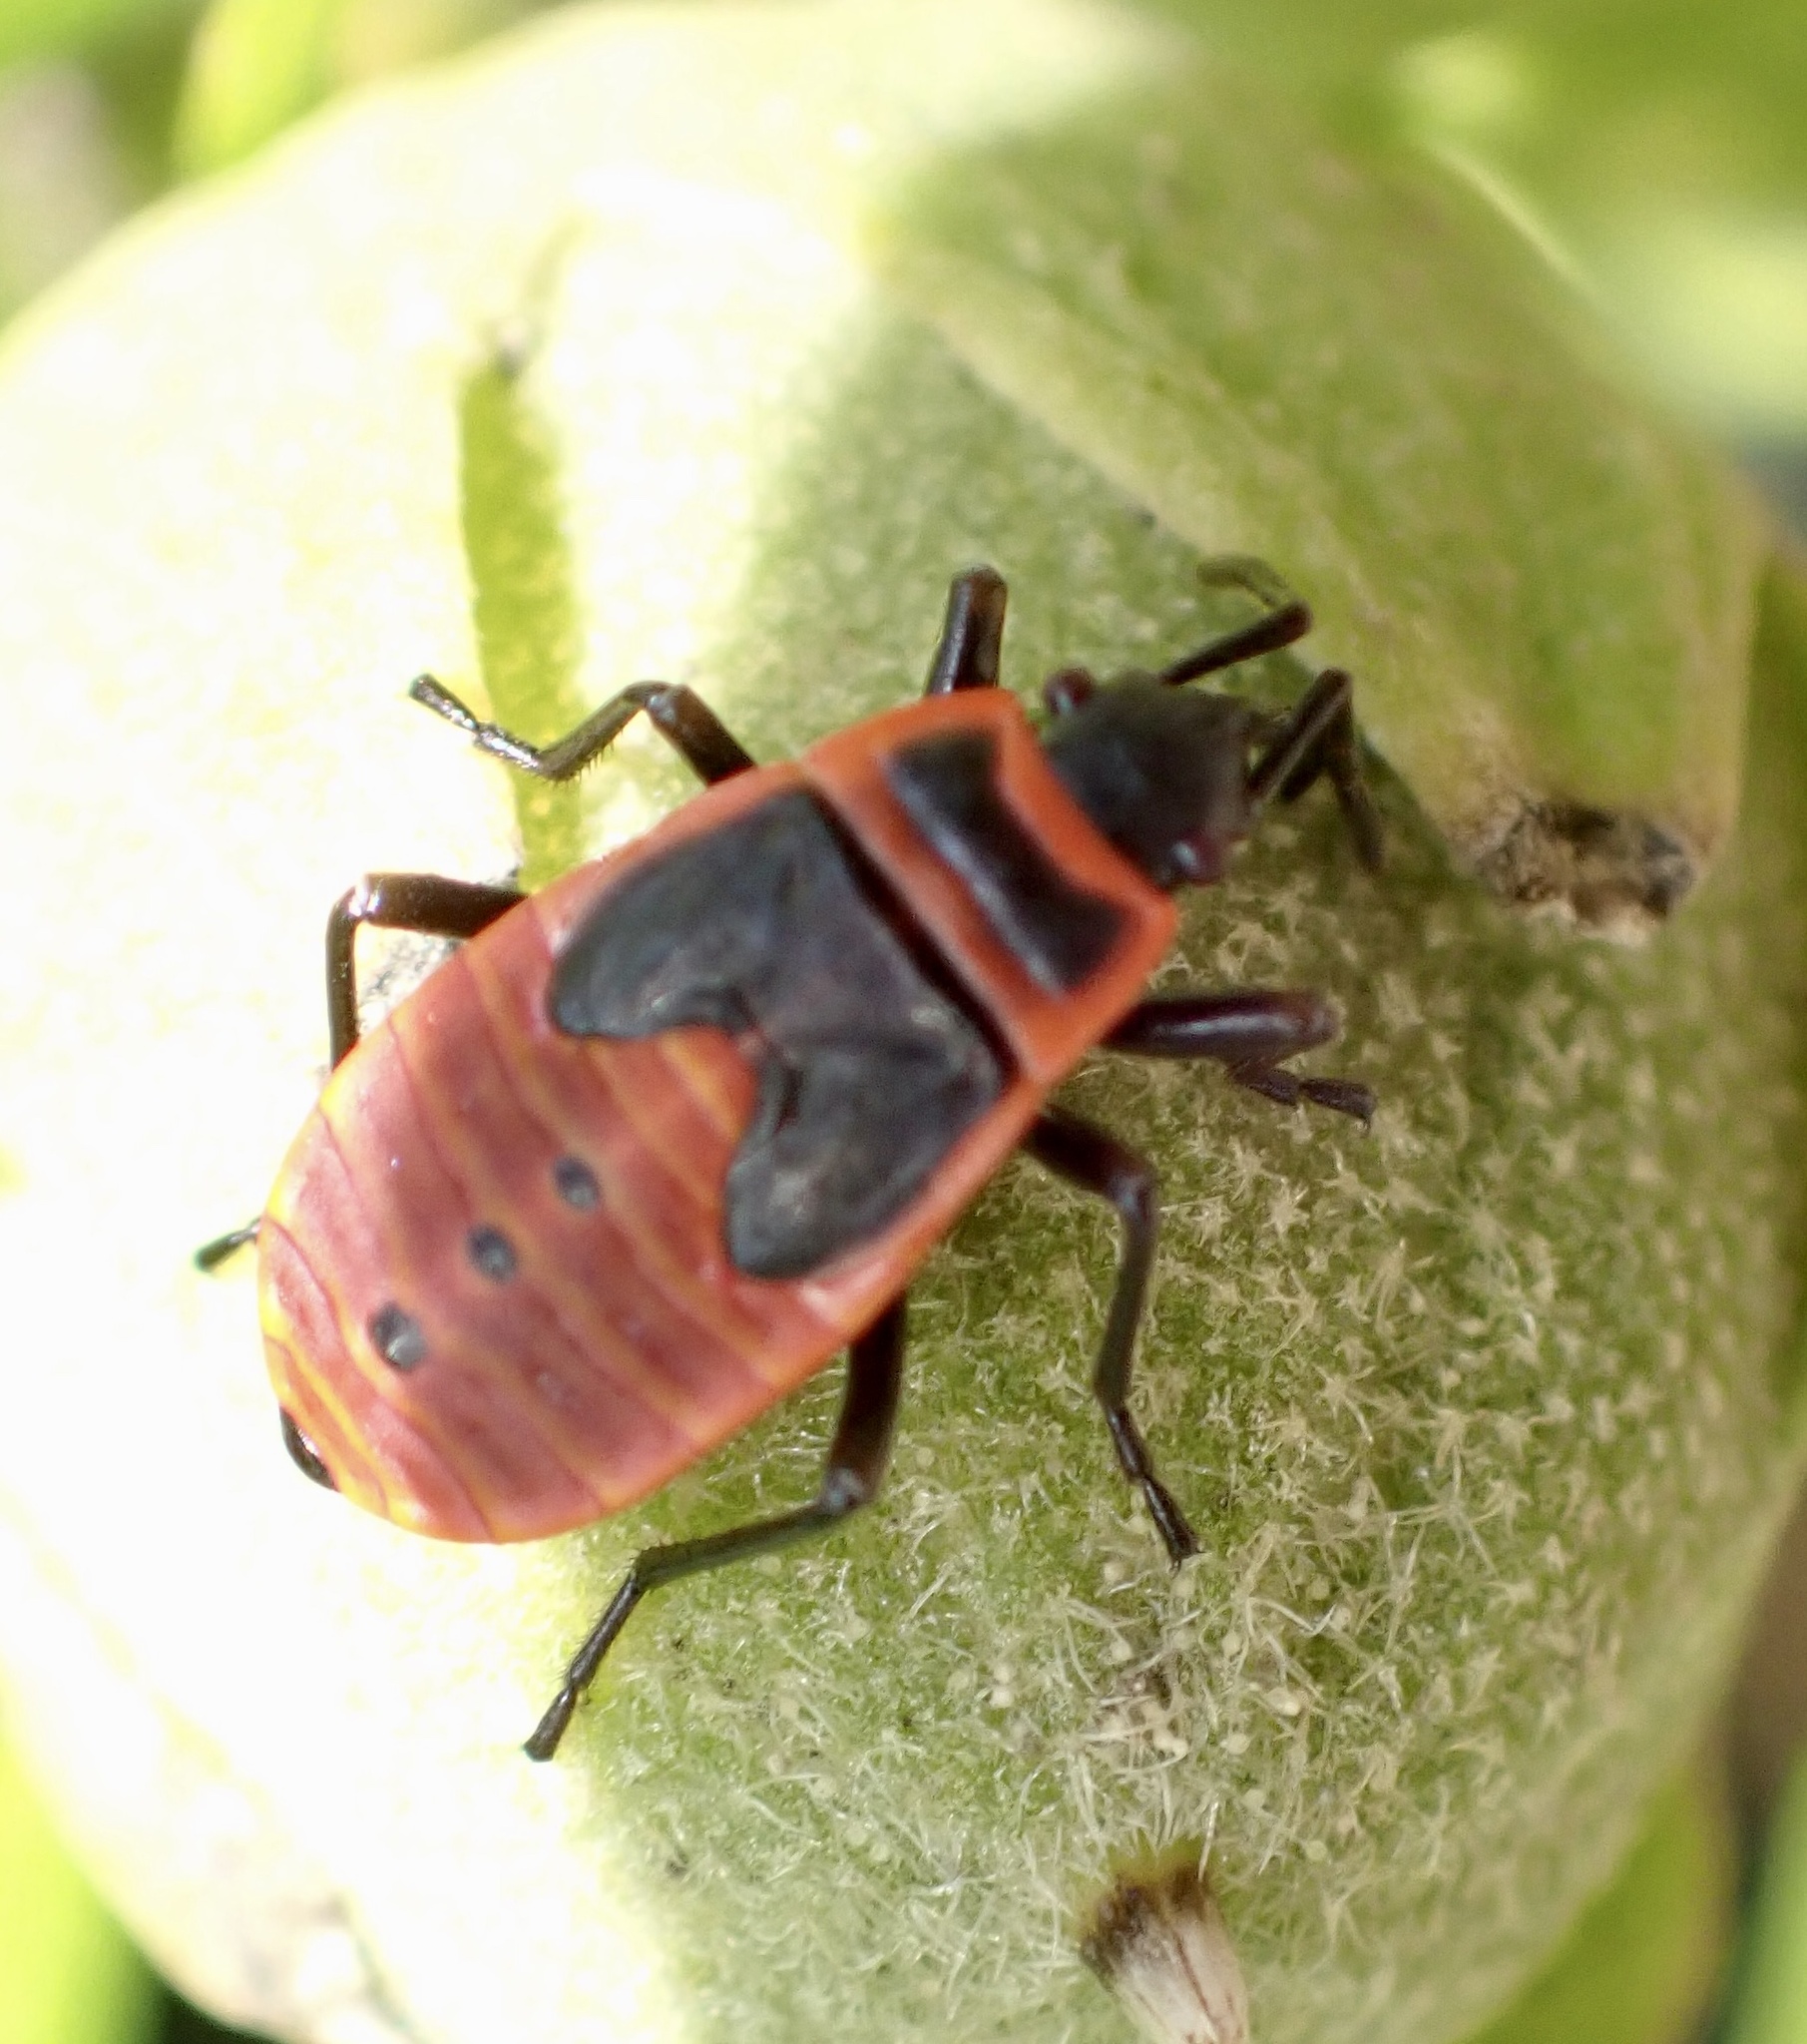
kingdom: Animalia
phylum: Arthropoda
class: Insecta
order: Hemiptera
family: Pyrrhocoridae
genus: Pyrrhocoris
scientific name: Pyrrhocoris apterus
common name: Firebug
